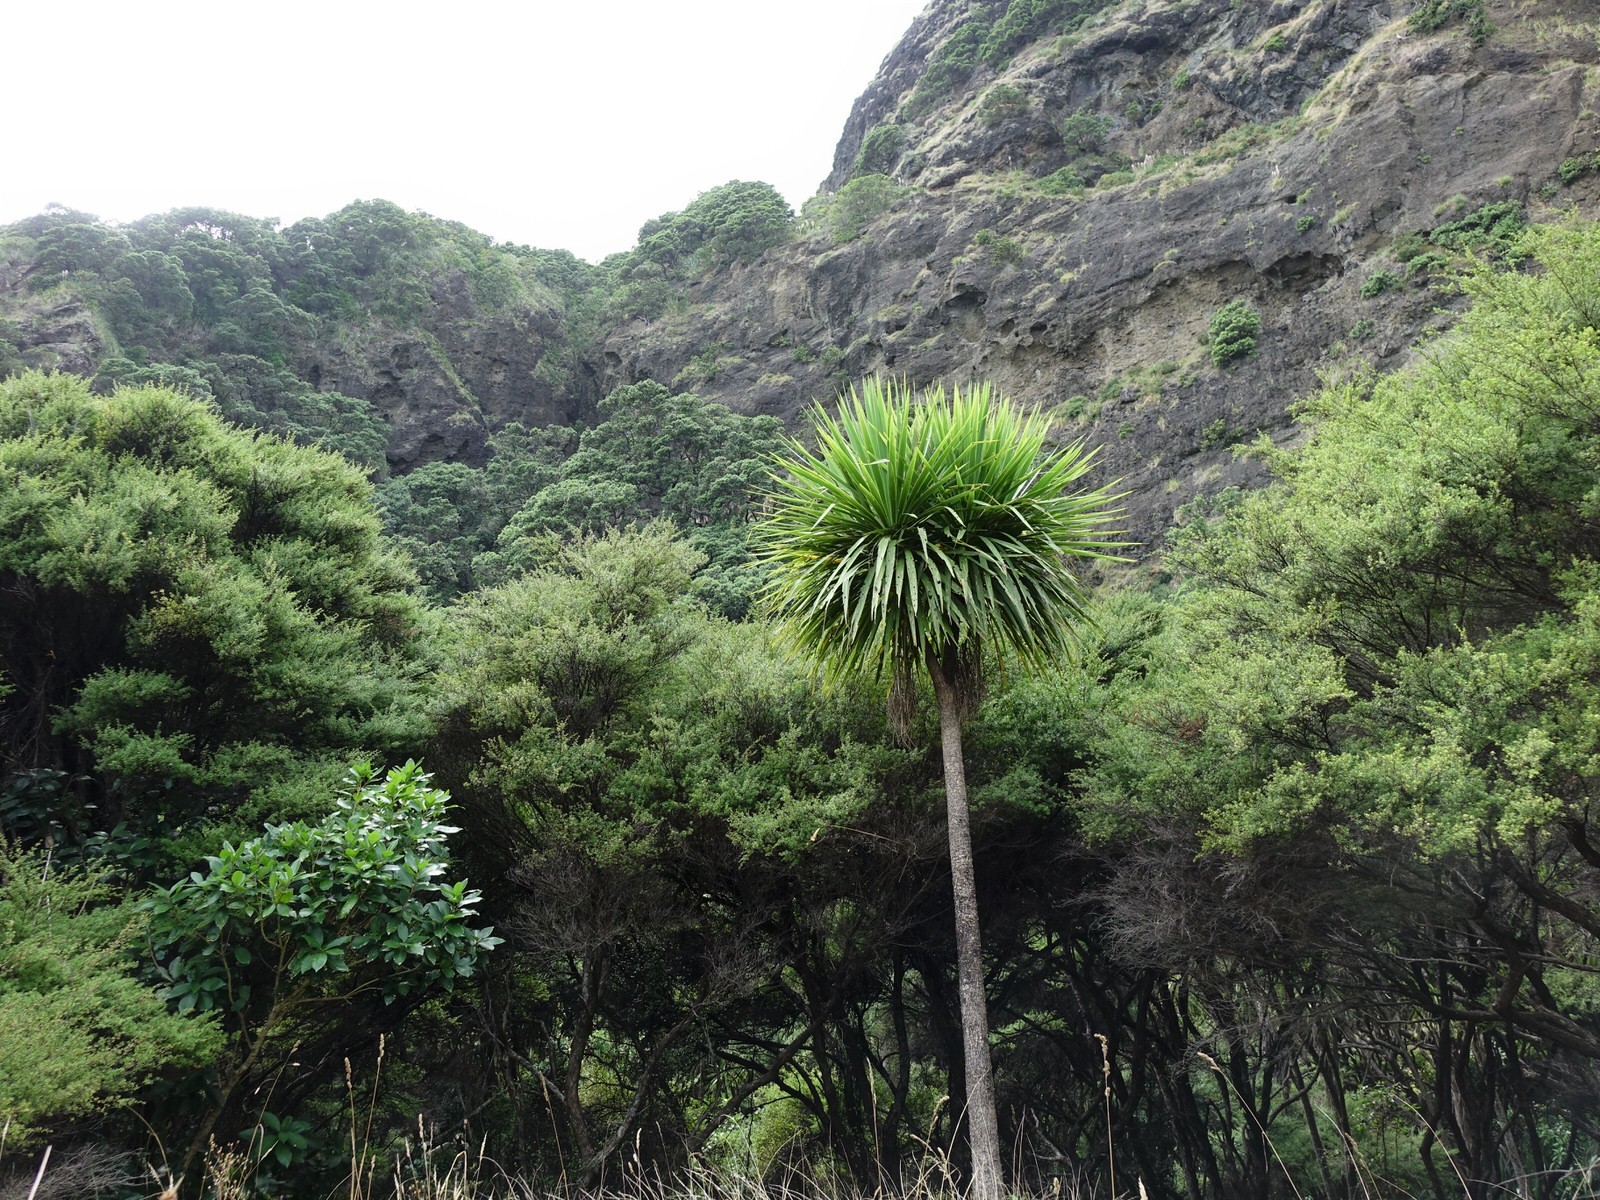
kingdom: Plantae
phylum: Tracheophyta
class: Liliopsida
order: Asparagales
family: Asparagaceae
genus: Cordyline
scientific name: Cordyline australis
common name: Cabbage-palm
